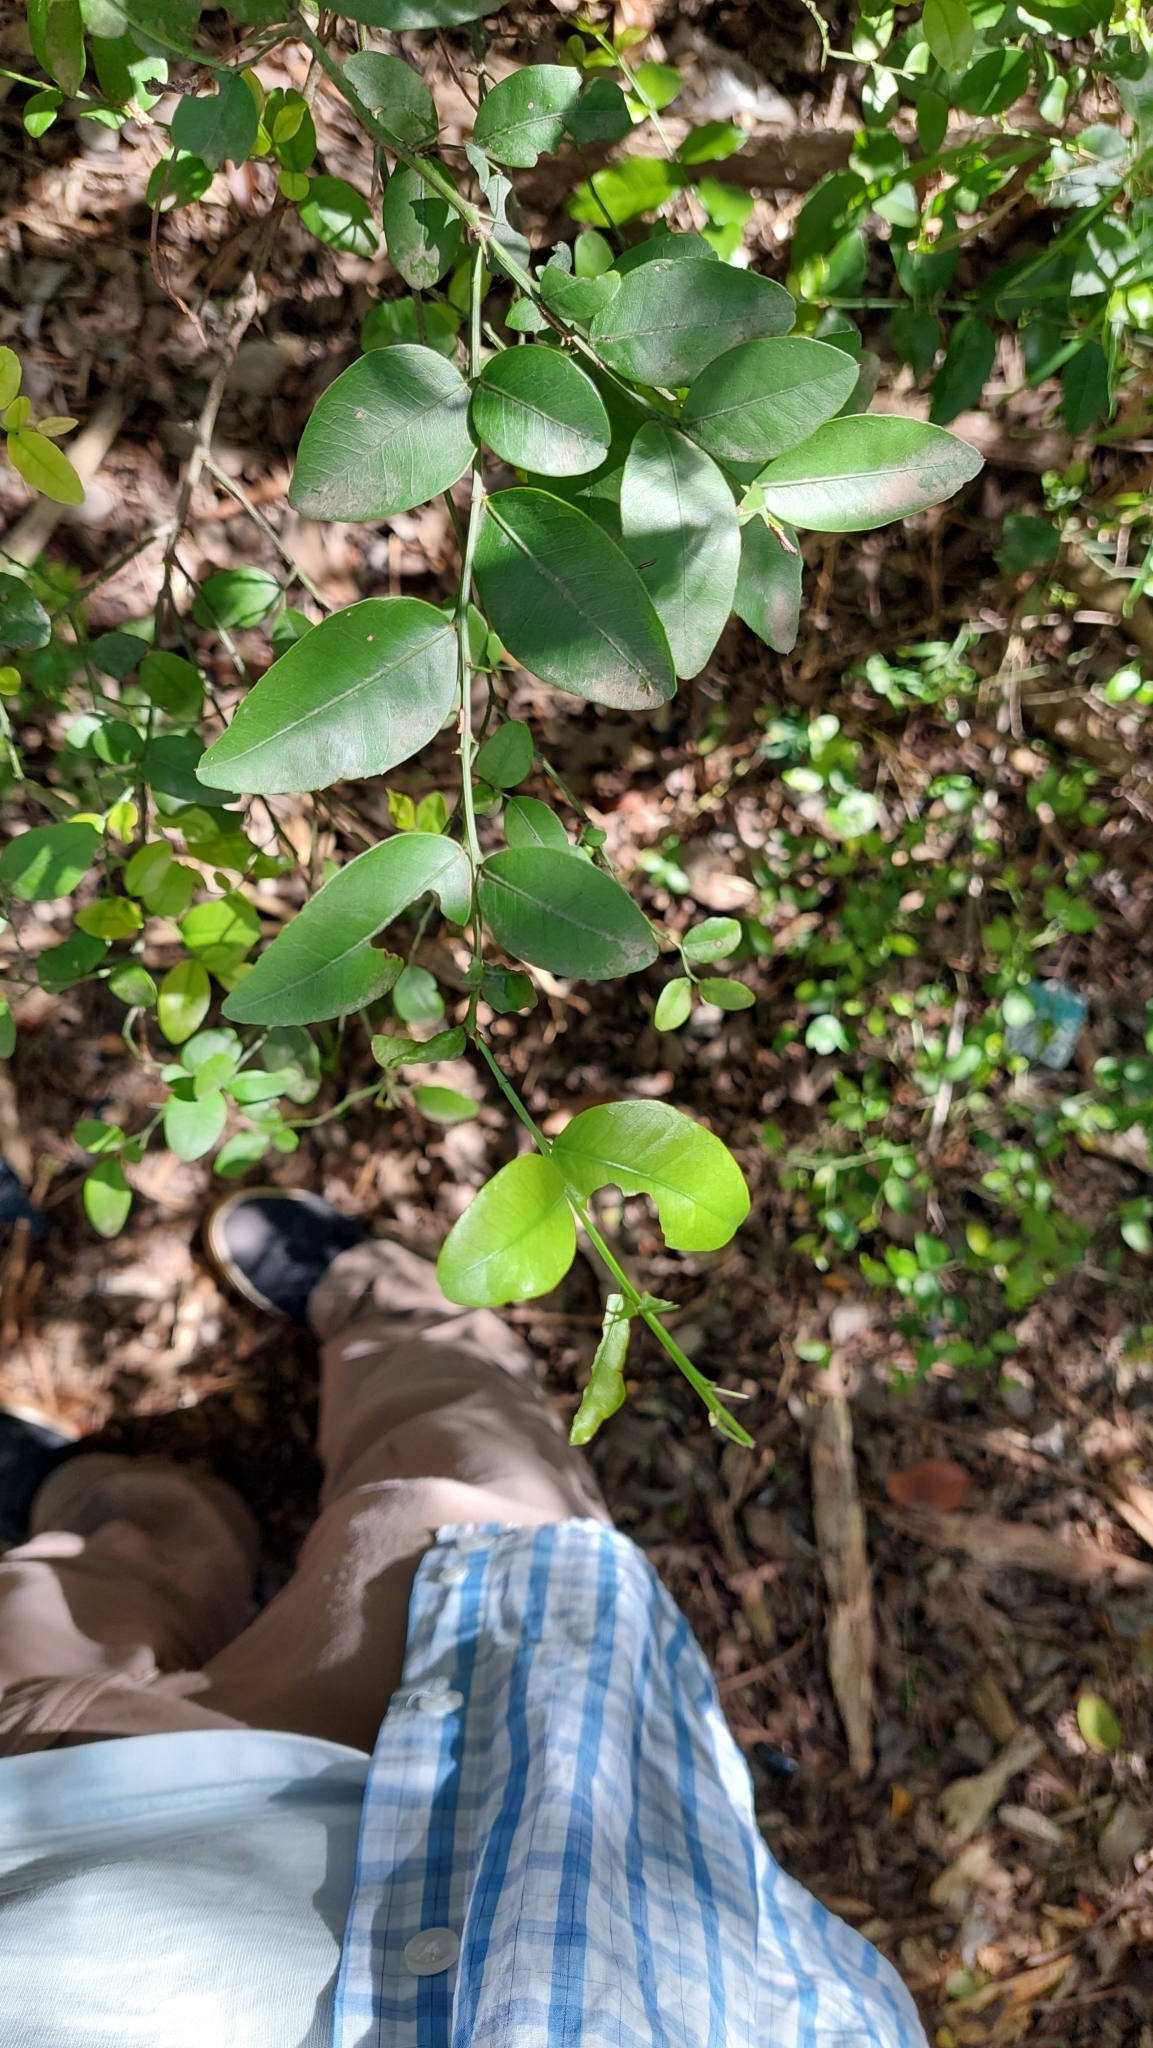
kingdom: Plantae
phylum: Tracheophyta
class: Magnoliopsida
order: Rosales
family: Rhamnaceae
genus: Scutia
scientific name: Scutia buxifolia
